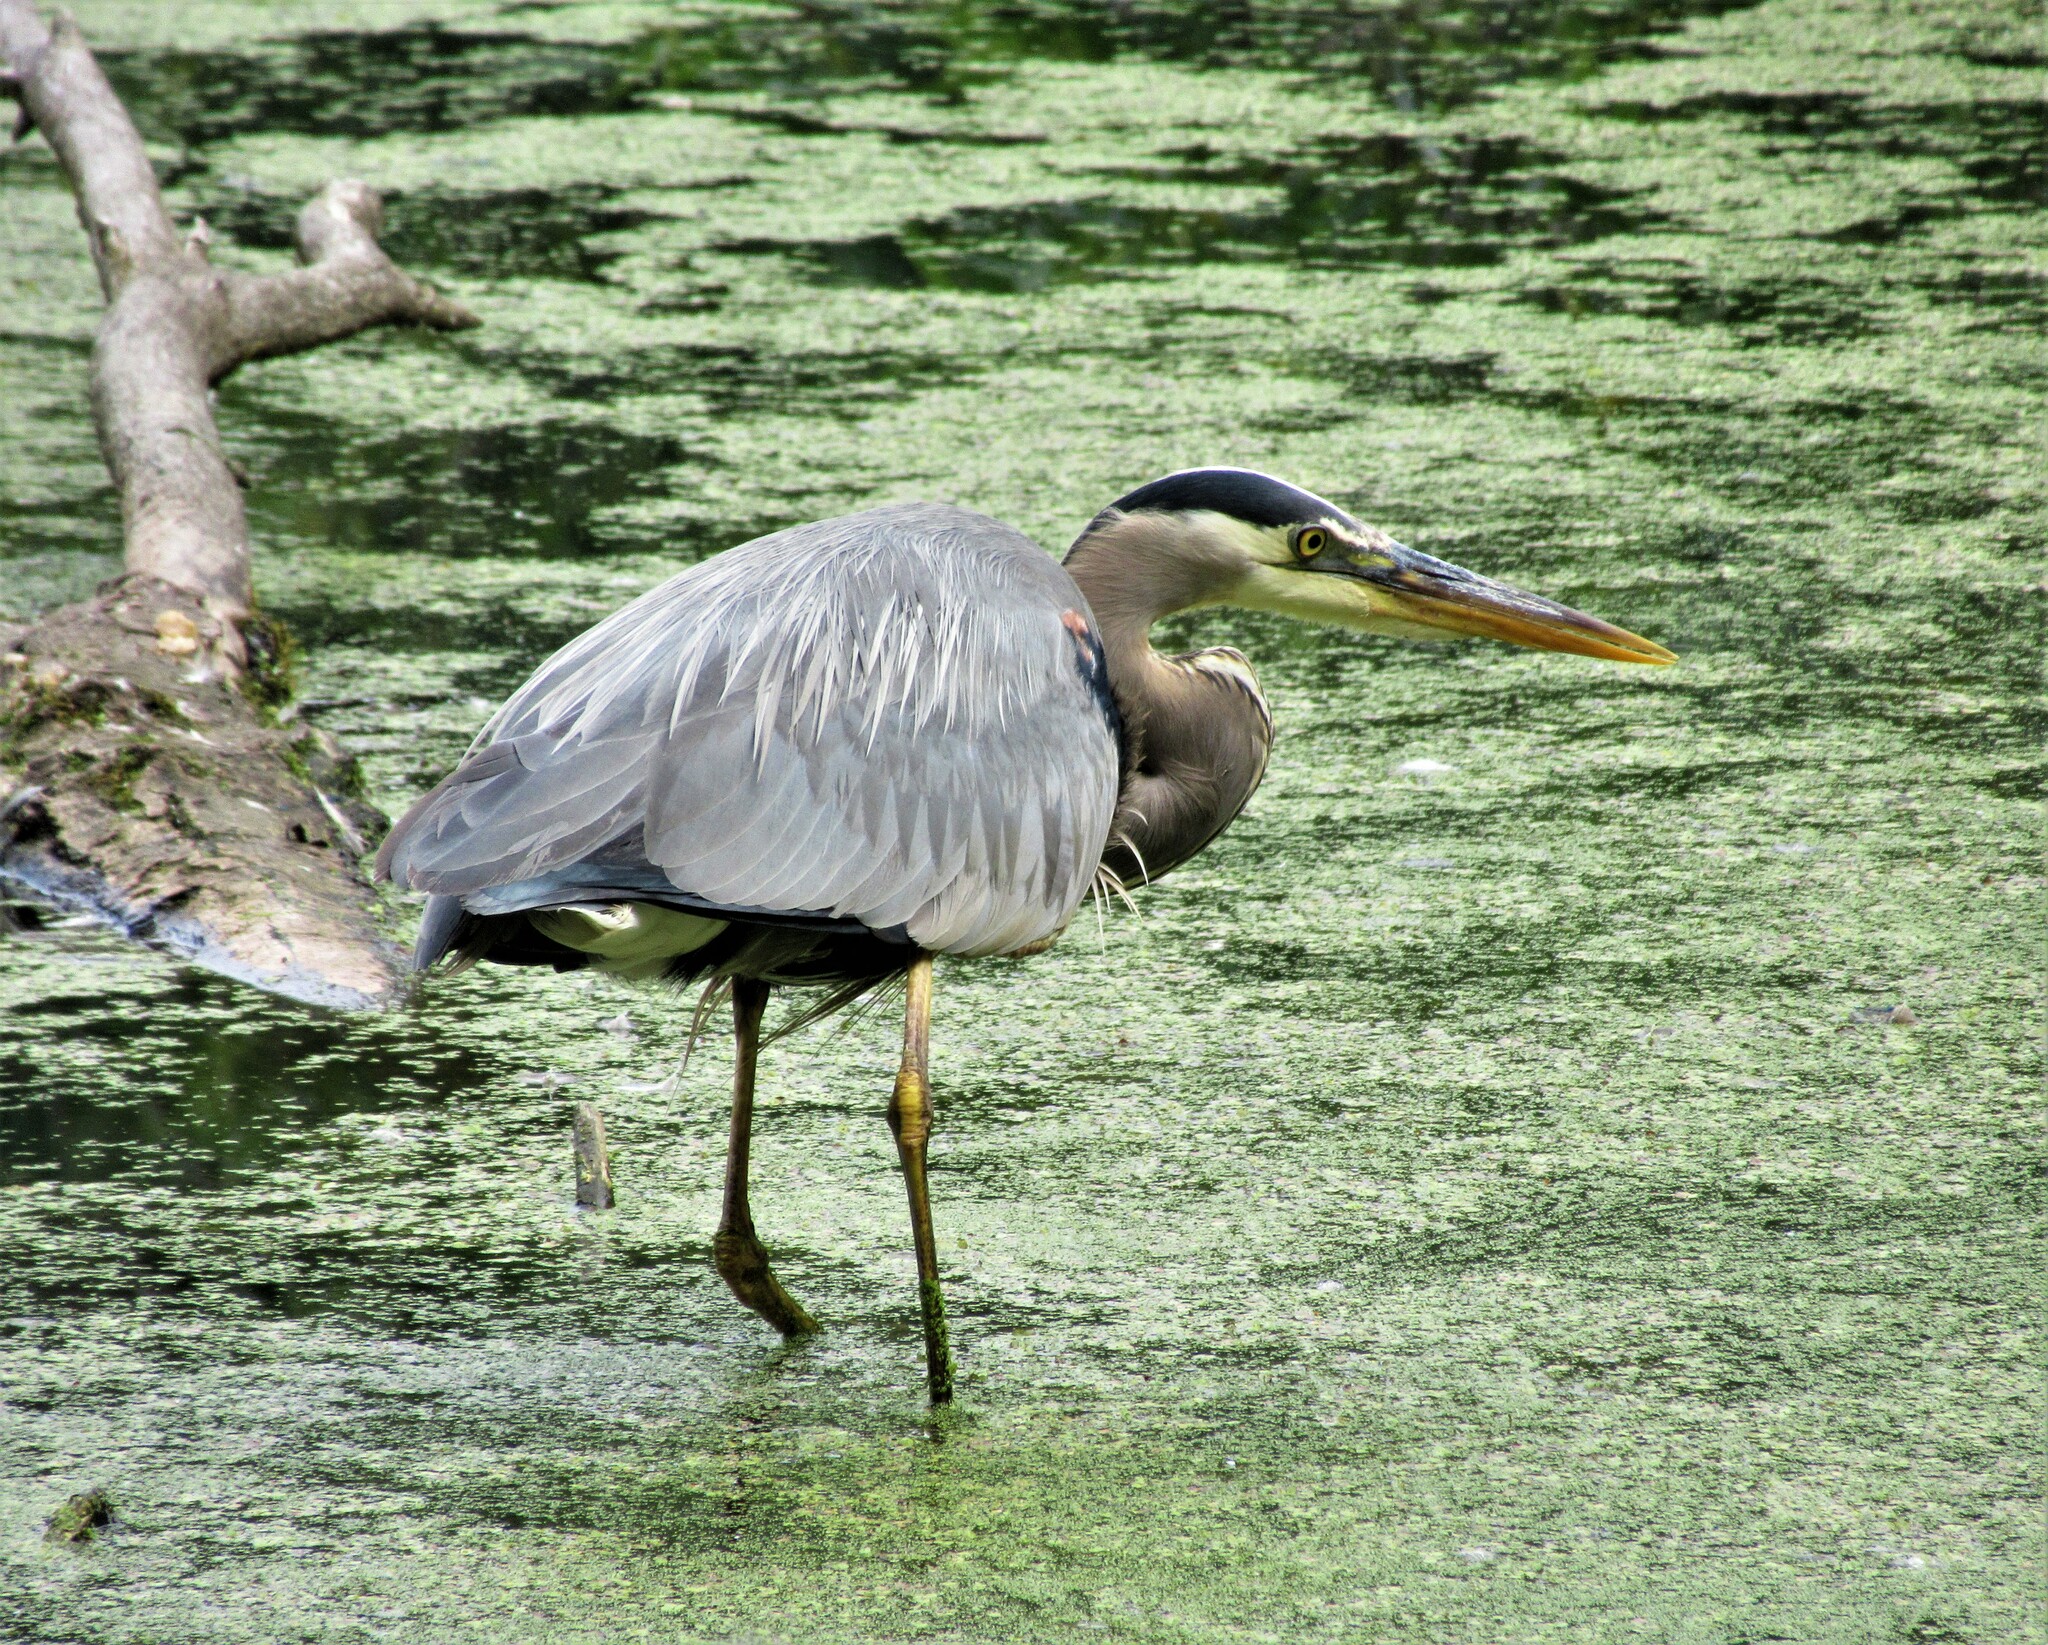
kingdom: Animalia
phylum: Chordata
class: Aves
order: Pelecaniformes
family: Ardeidae
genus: Ardea
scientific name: Ardea herodias
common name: Great blue heron
